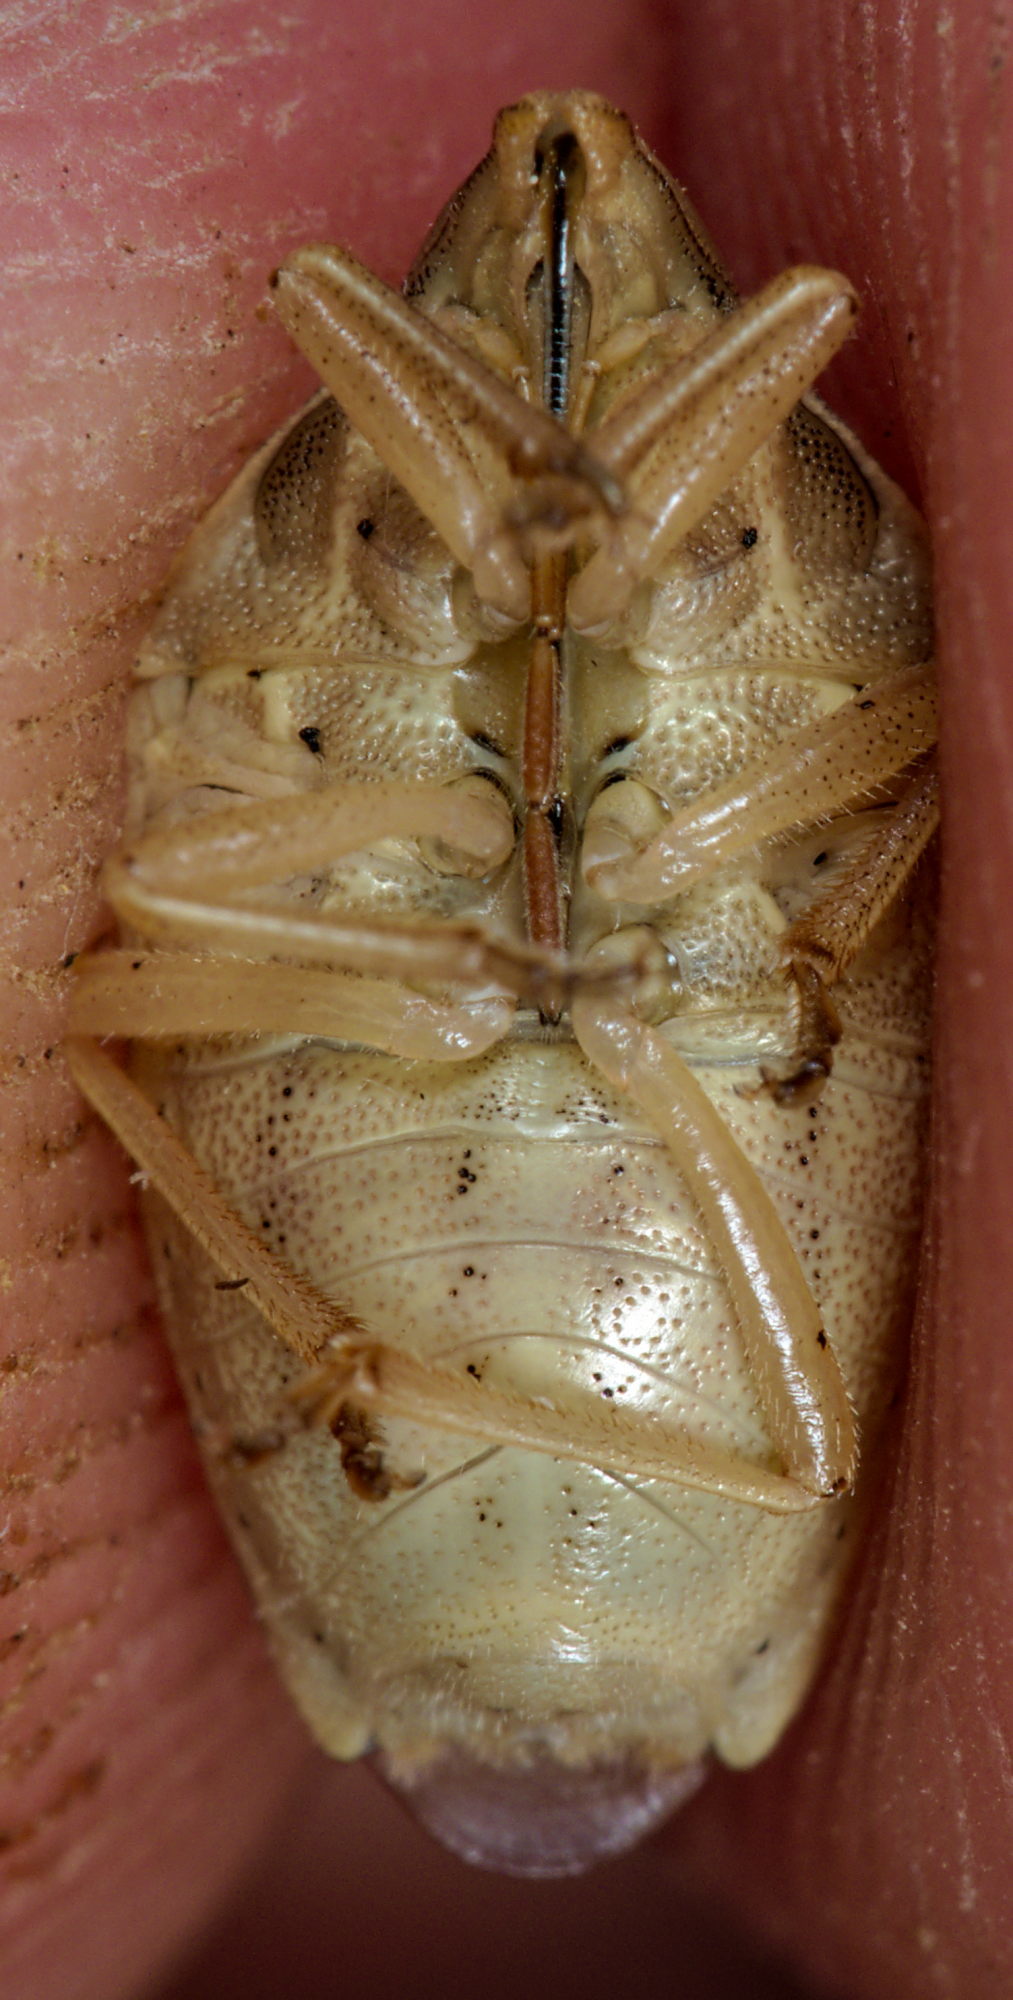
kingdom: Animalia
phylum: Arthropoda
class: Insecta
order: Hemiptera
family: Pentatomidae
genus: Aelia
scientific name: Aelia rostrata
